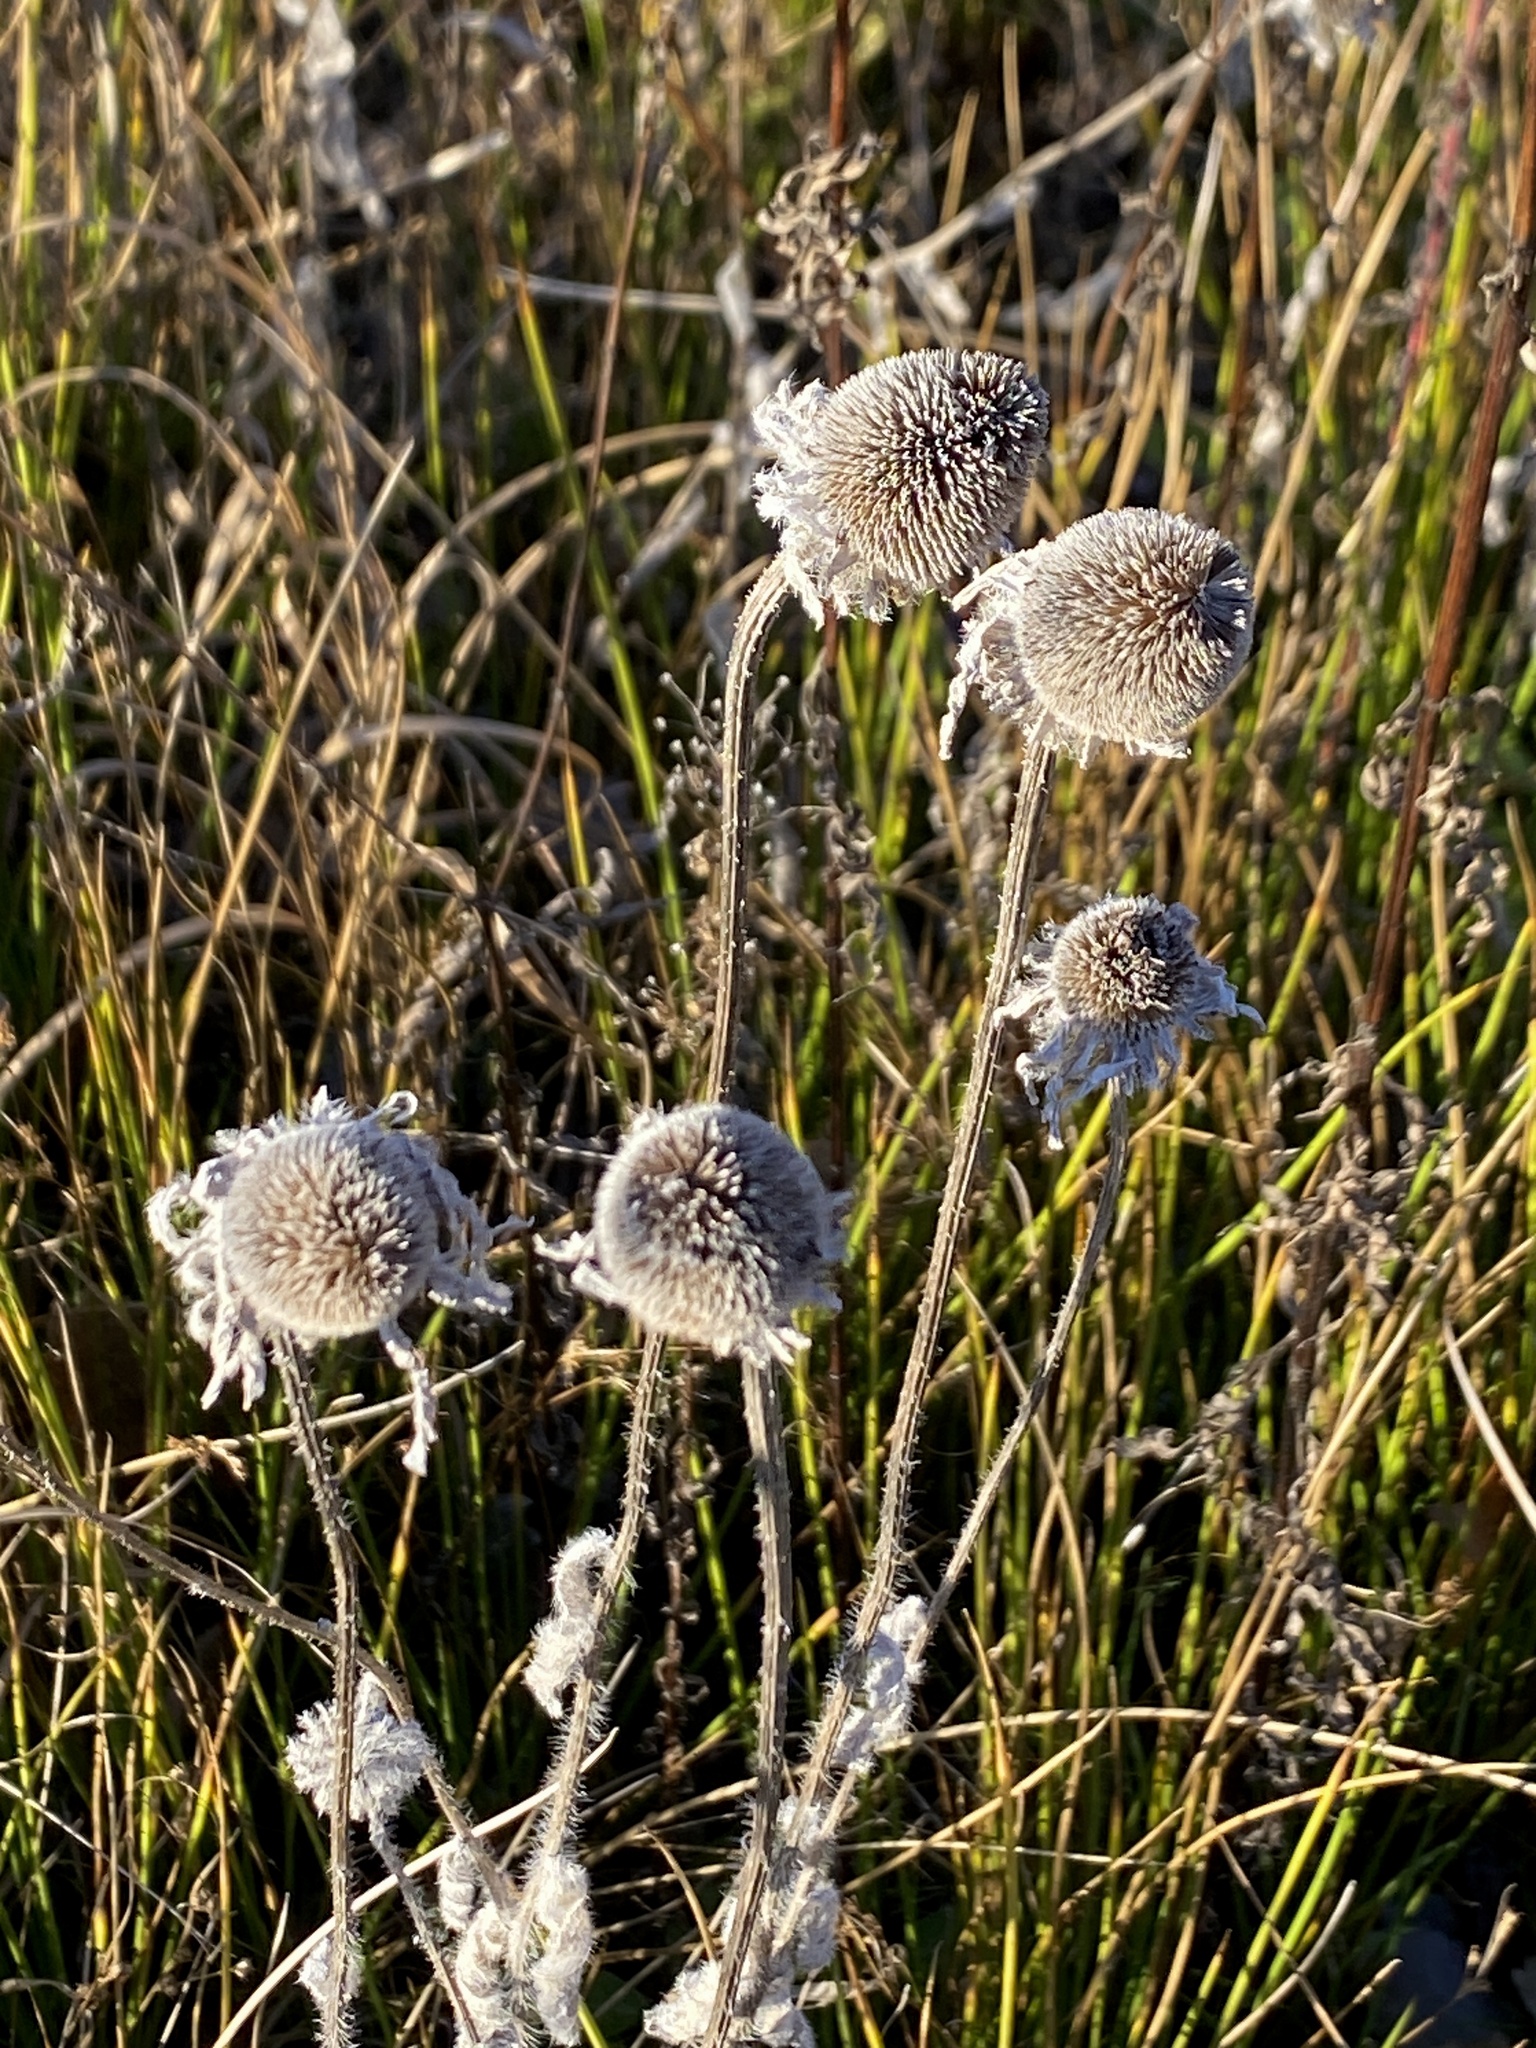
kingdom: Plantae
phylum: Tracheophyta
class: Magnoliopsida
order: Asterales
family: Asteraceae
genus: Rudbeckia
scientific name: Rudbeckia hirta
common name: Black-eyed-susan
